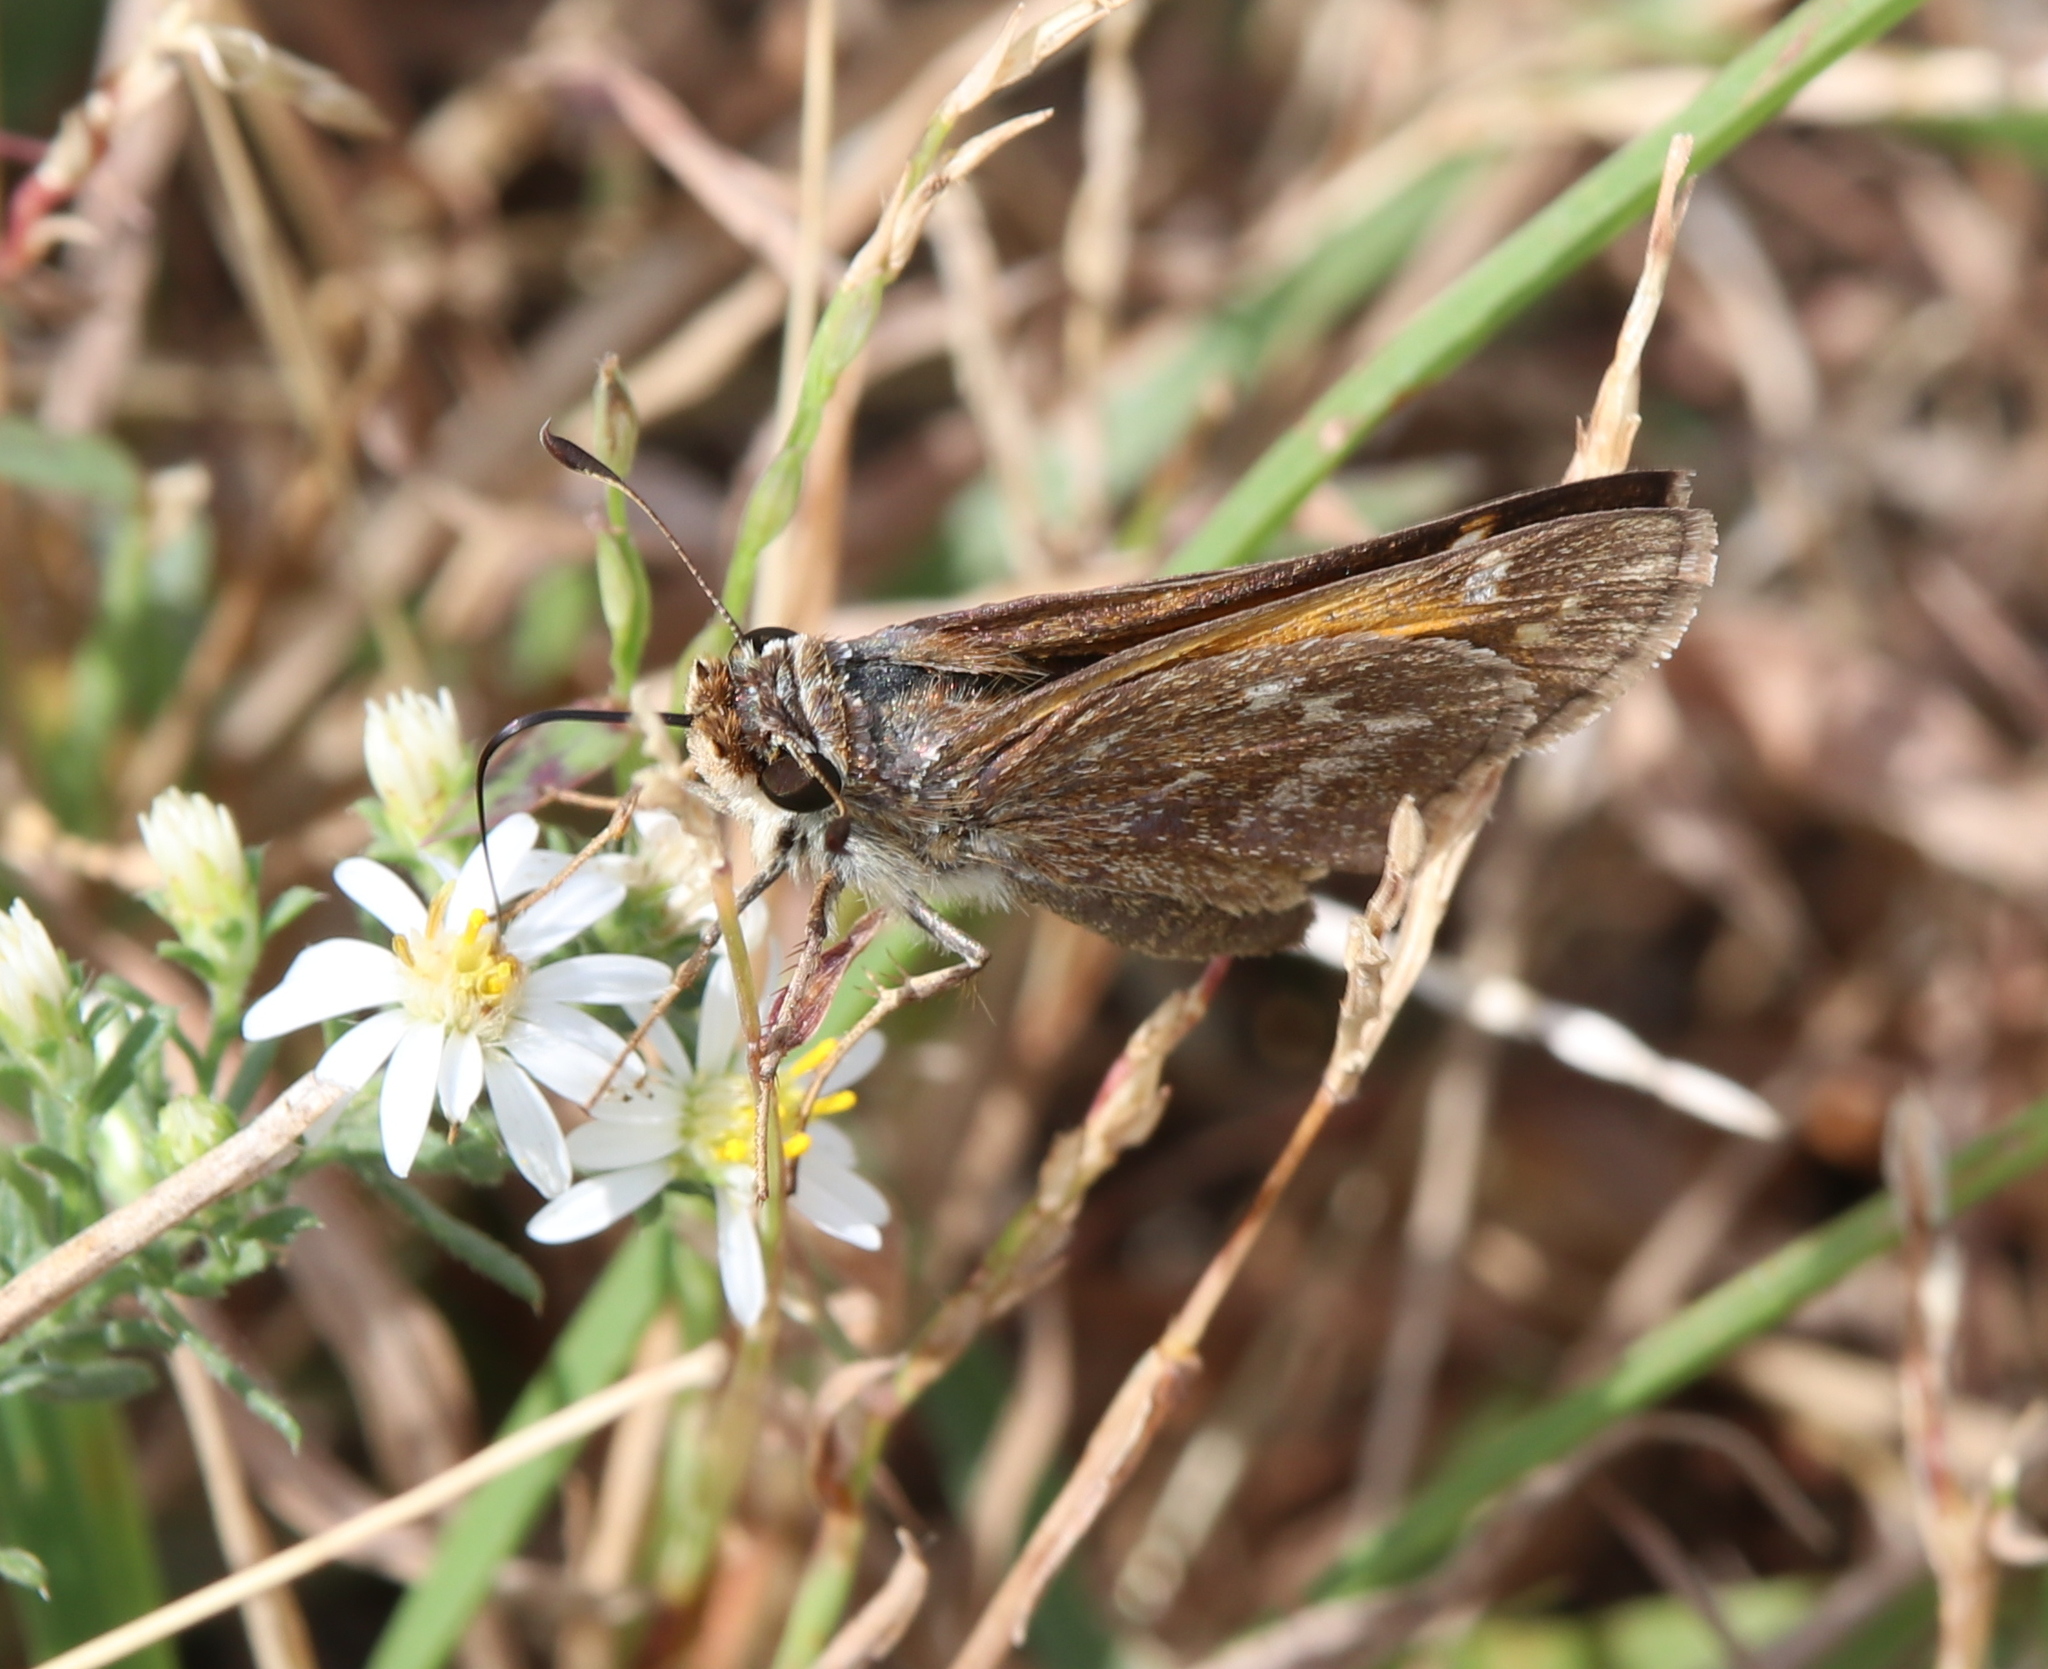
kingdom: Animalia
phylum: Arthropoda
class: Insecta
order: Lepidoptera
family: Hesperiidae
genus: Atalopedes
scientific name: Atalopedes
